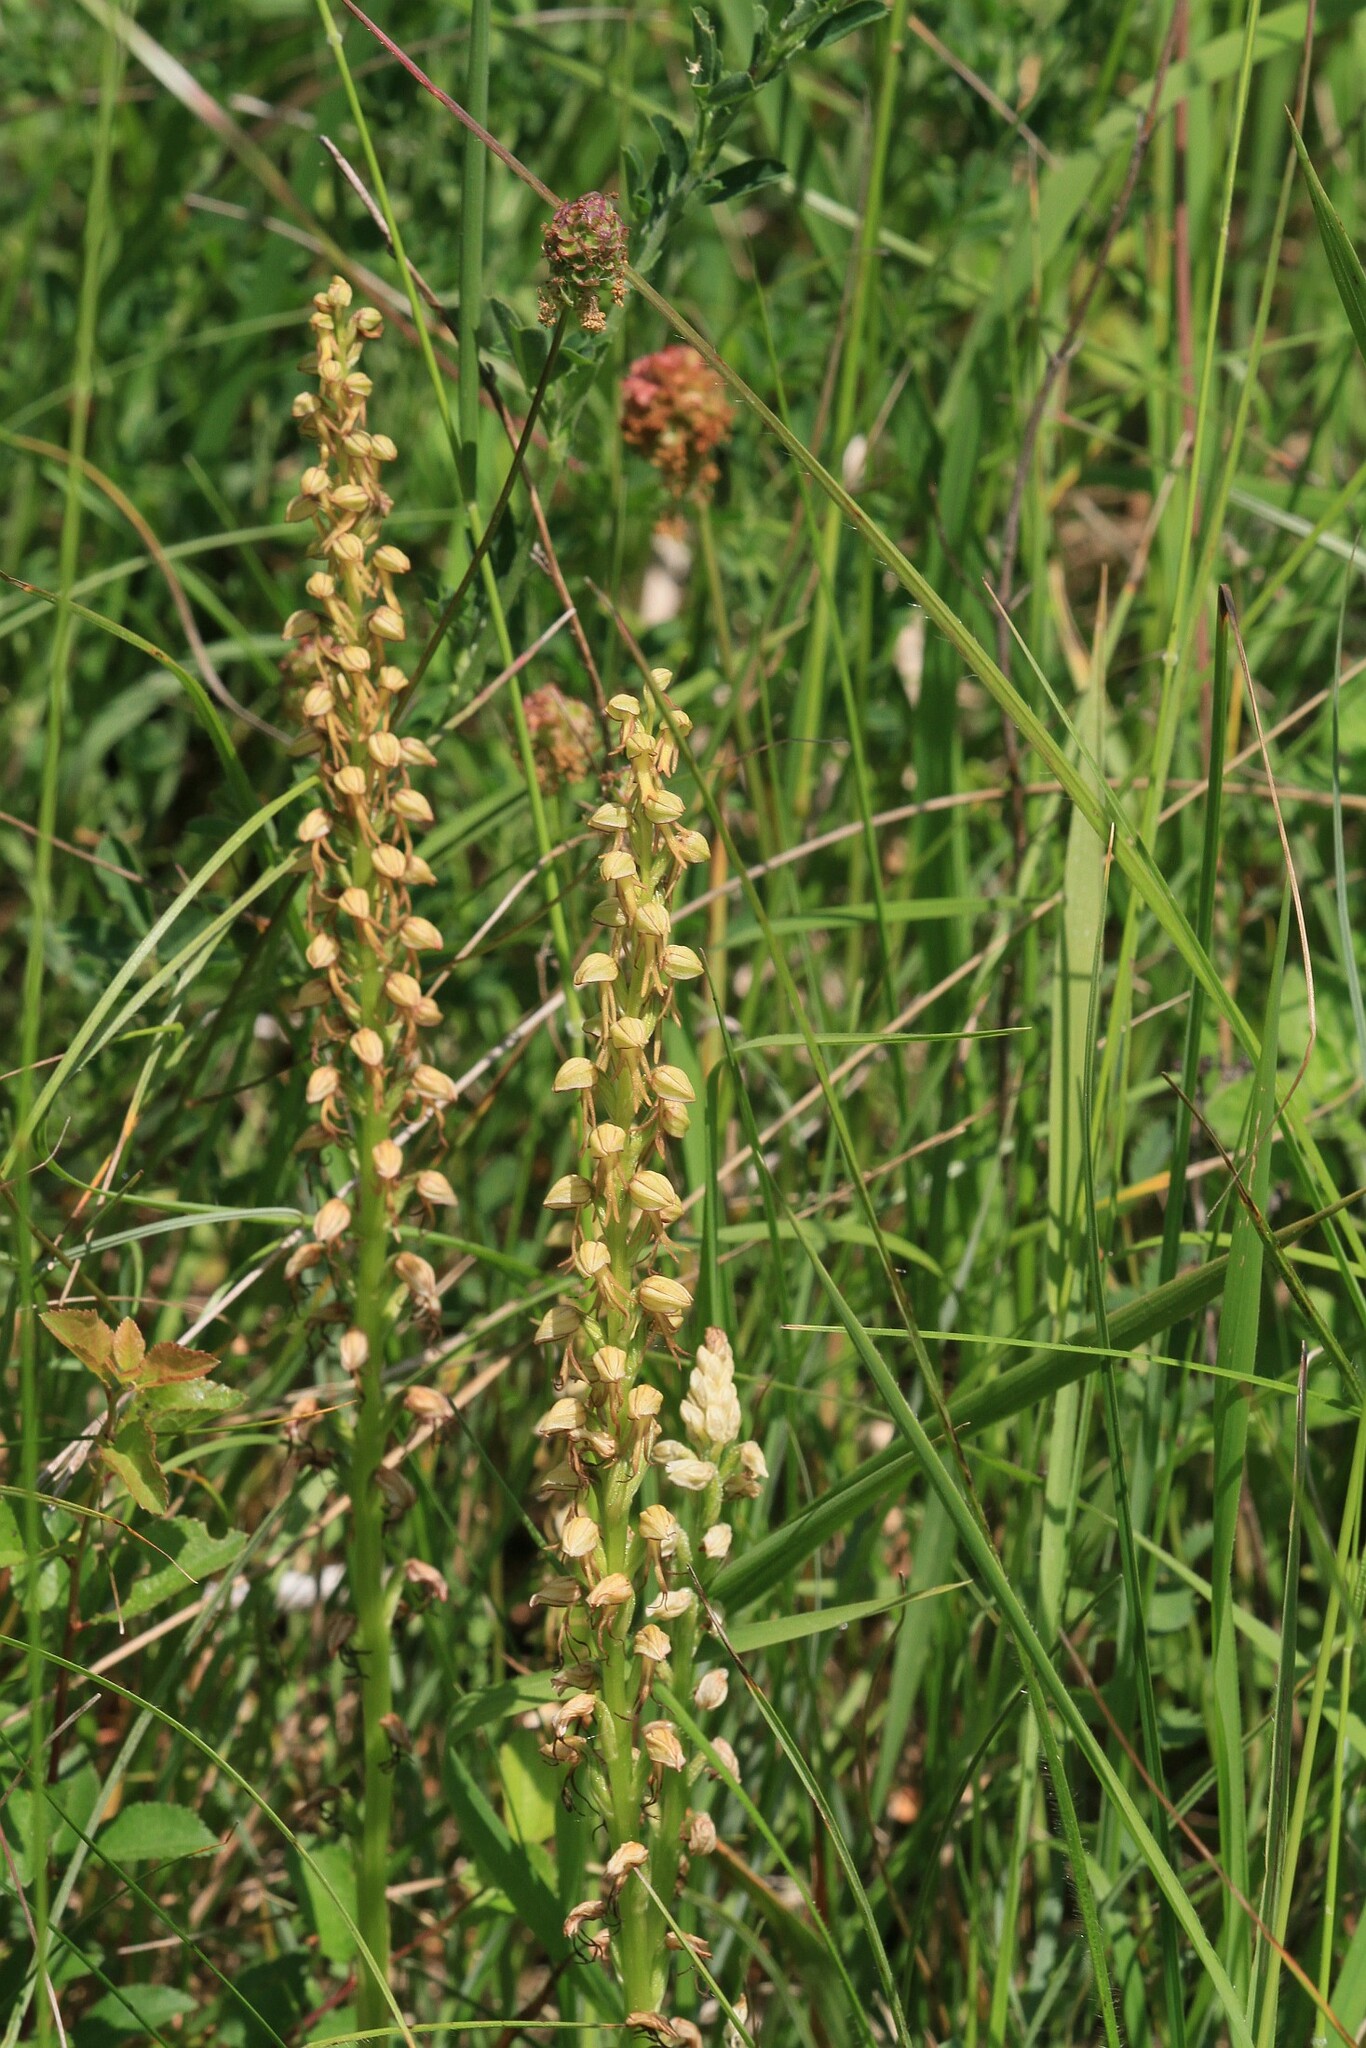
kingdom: Plantae
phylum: Tracheophyta
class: Liliopsida
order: Asparagales
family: Orchidaceae
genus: Orchis
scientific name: Orchis anthropophora
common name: Man orchid
